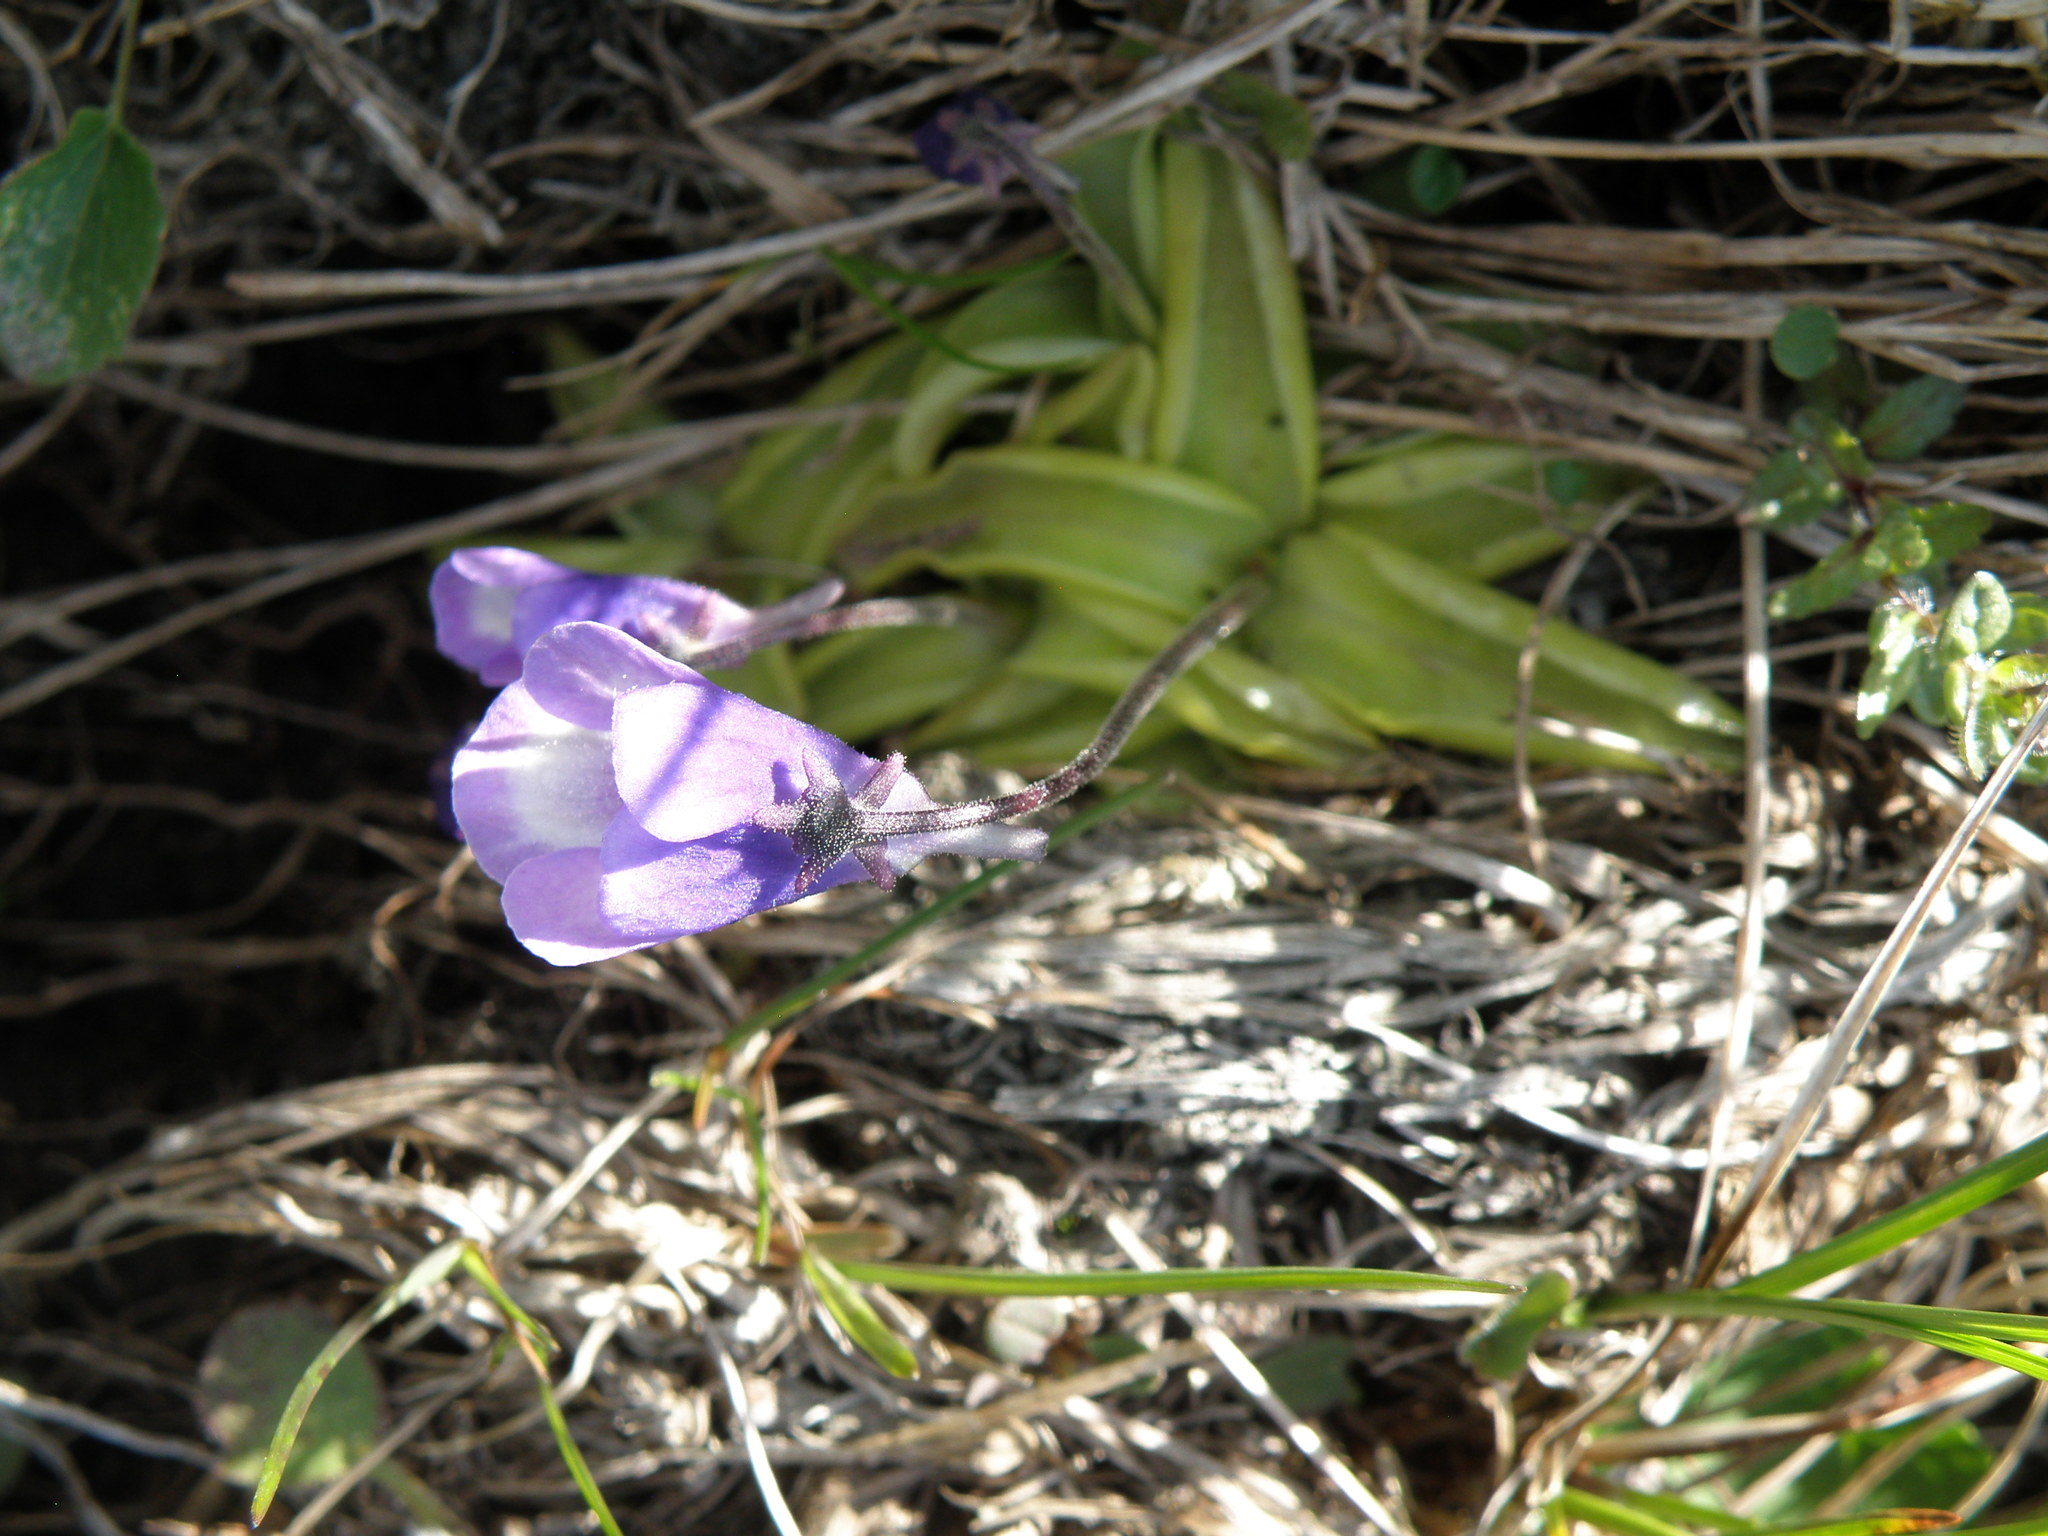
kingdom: Plantae
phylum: Tracheophyta
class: Magnoliopsida
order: Lamiales
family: Lentibulariaceae
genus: Pinguicula
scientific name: Pinguicula leptoceras
